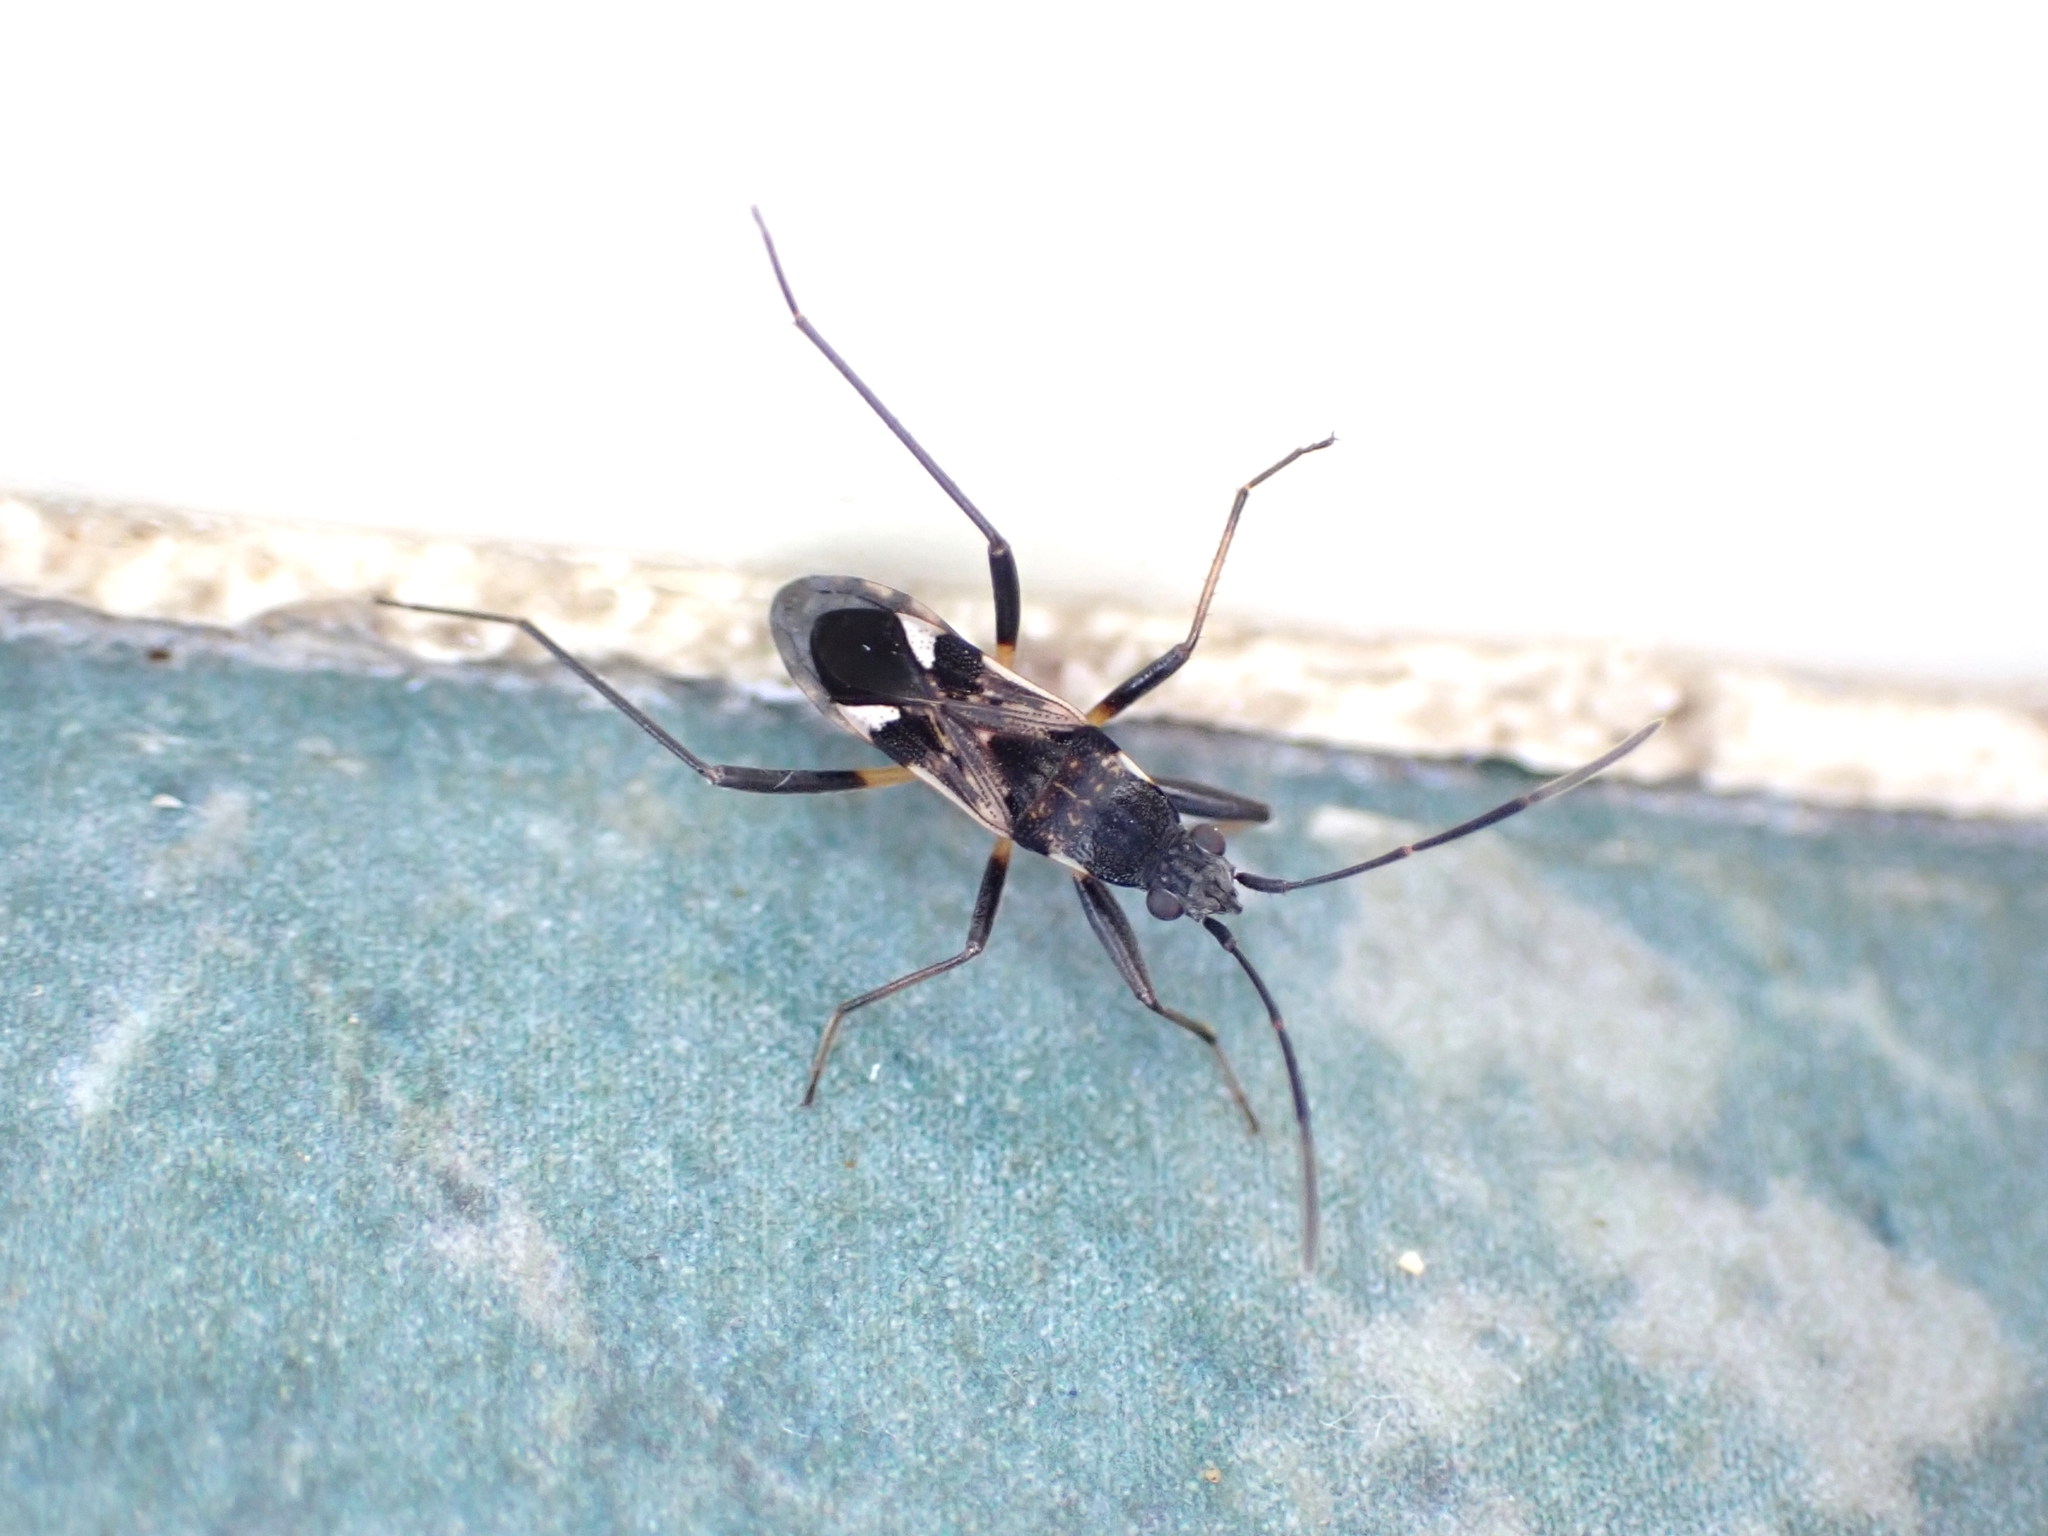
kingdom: Animalia
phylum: Arthropoda
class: Insecta
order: Hemiptera
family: Rhyparochromidae
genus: Dieuches
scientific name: Dieuches notatus
